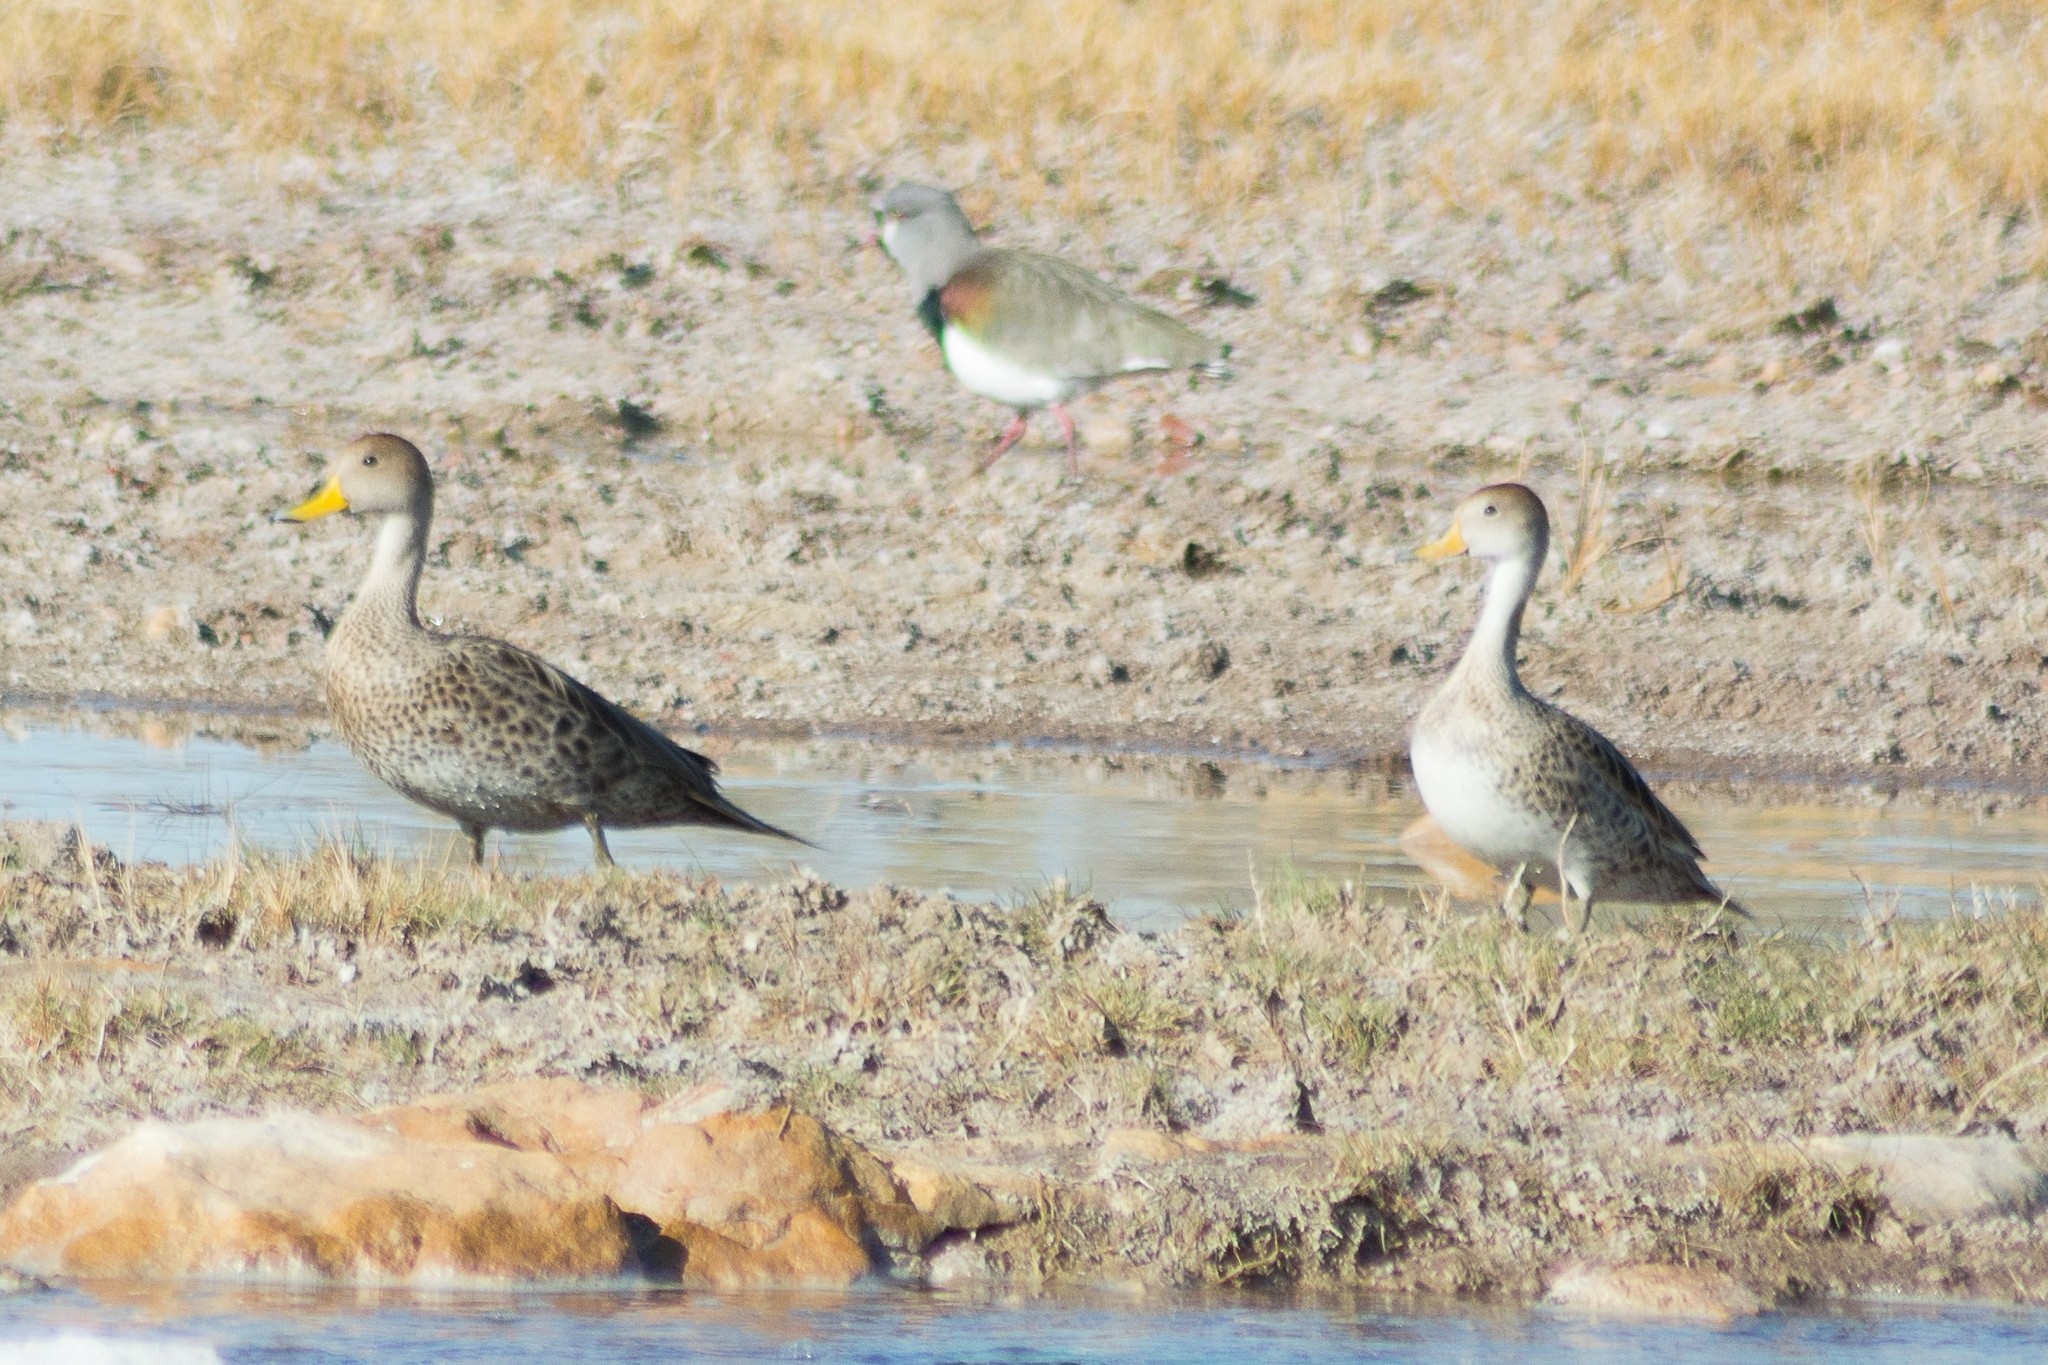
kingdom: Animalia
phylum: Chordata
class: Aves
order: Anseriformes
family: Anatidae
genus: Anas
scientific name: Anas georgica
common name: Yellow-billed pintail
